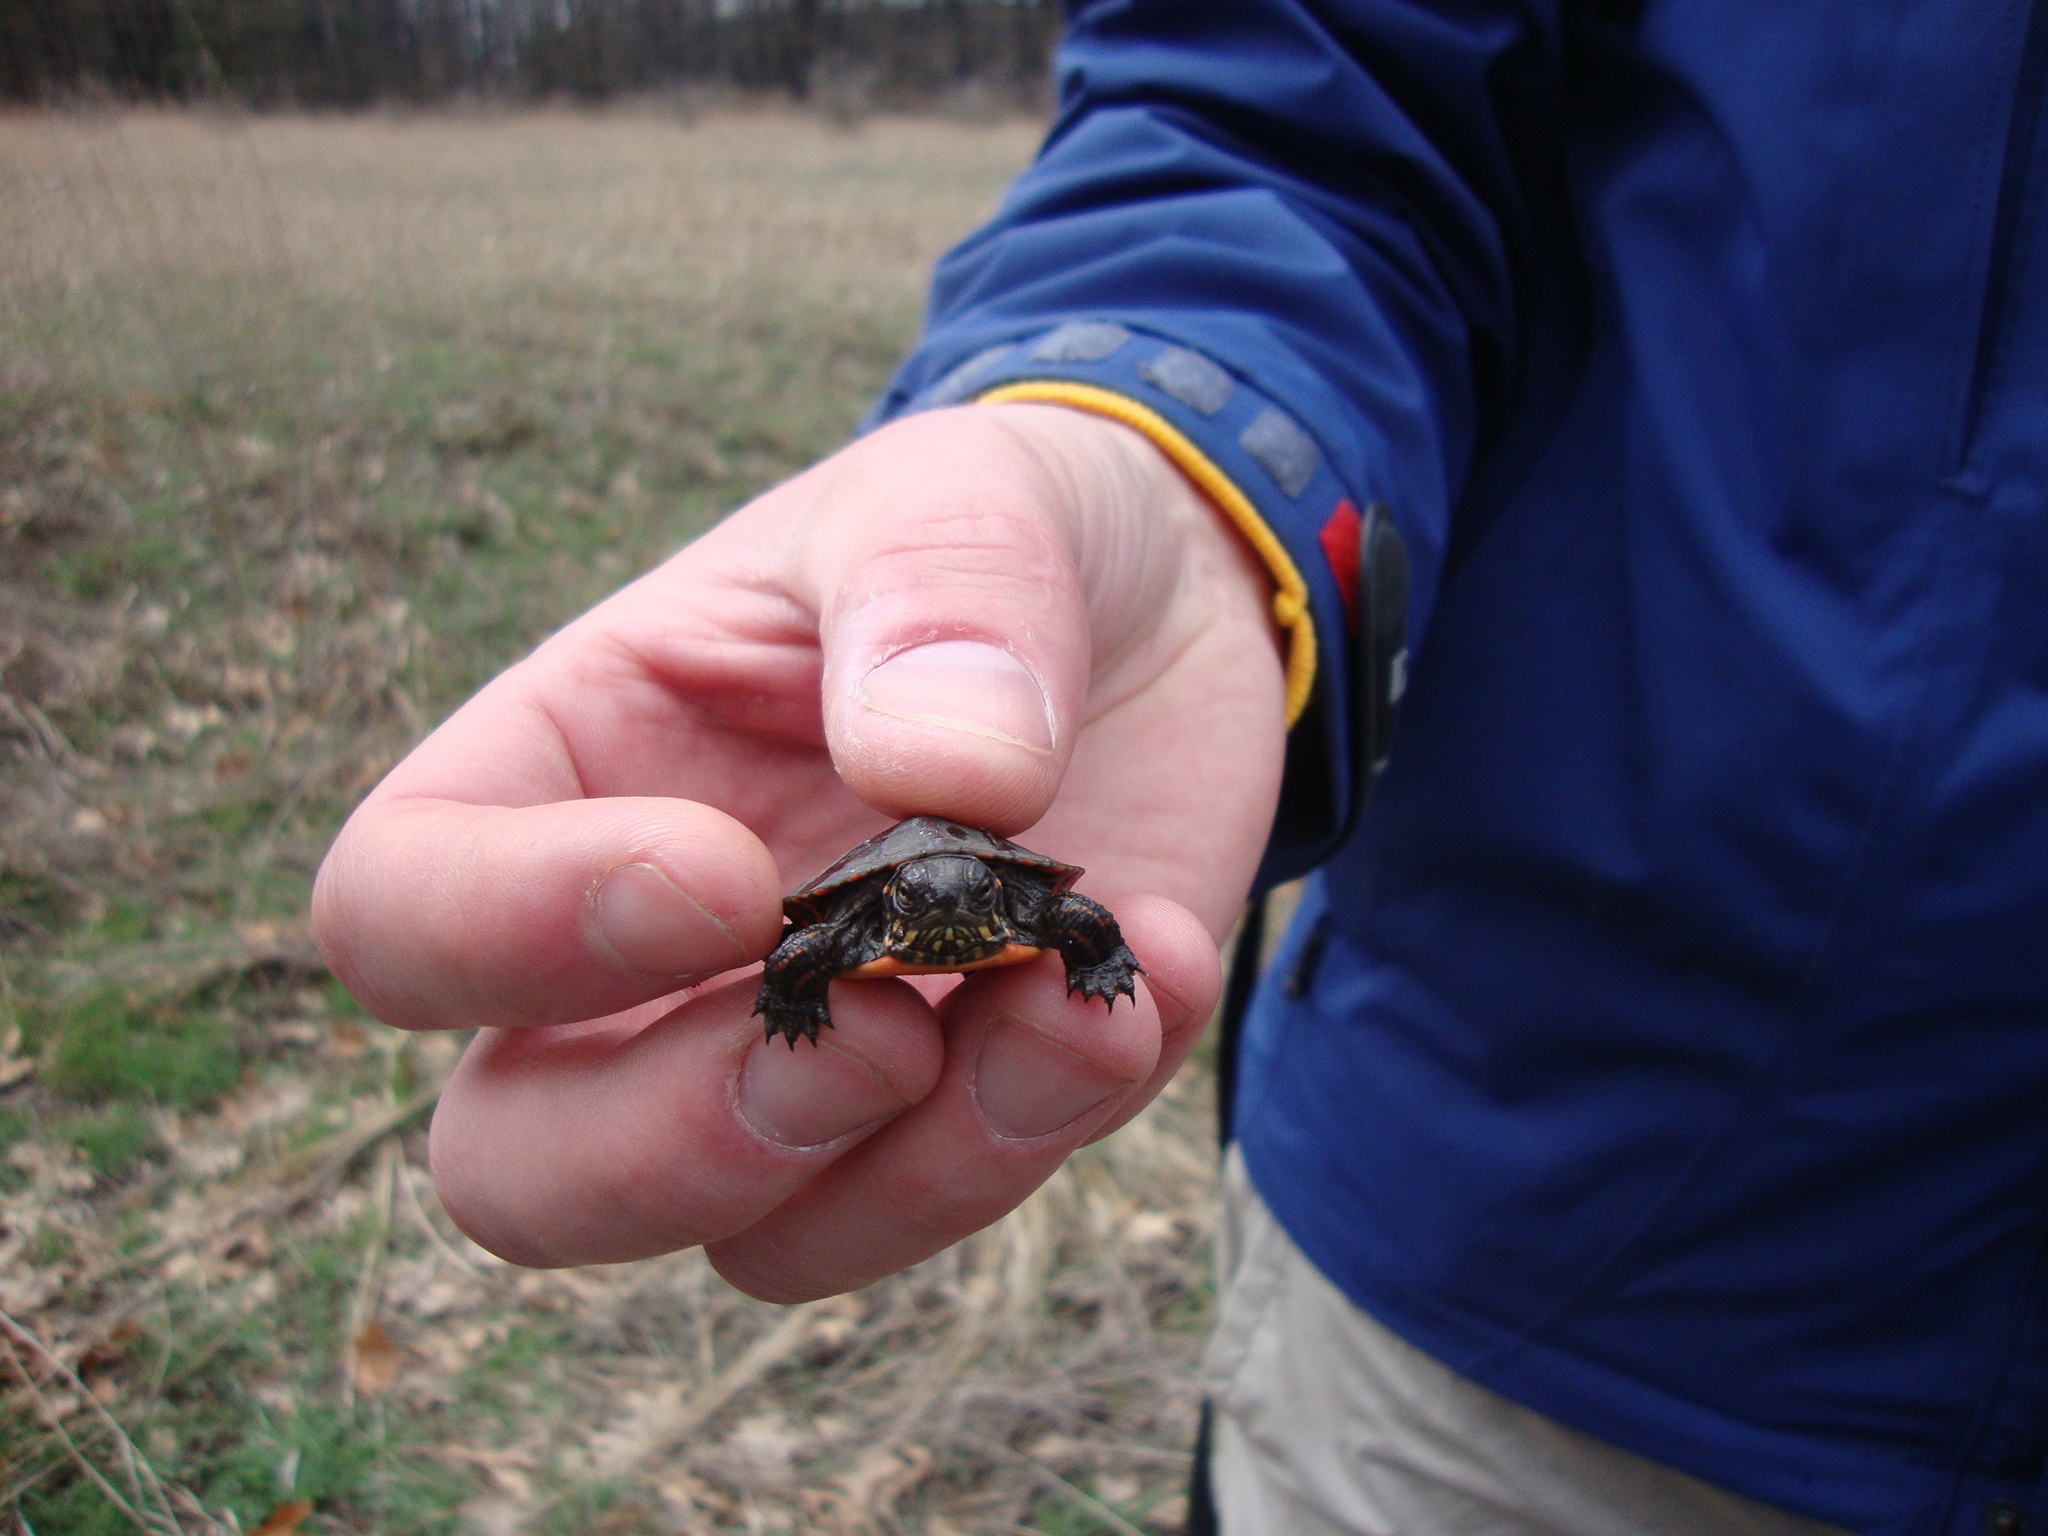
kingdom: Animalia
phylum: Chordata
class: Testudines
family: Emydidae
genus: Chrysemys
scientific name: Chrysemys picta
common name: Painted turtle
